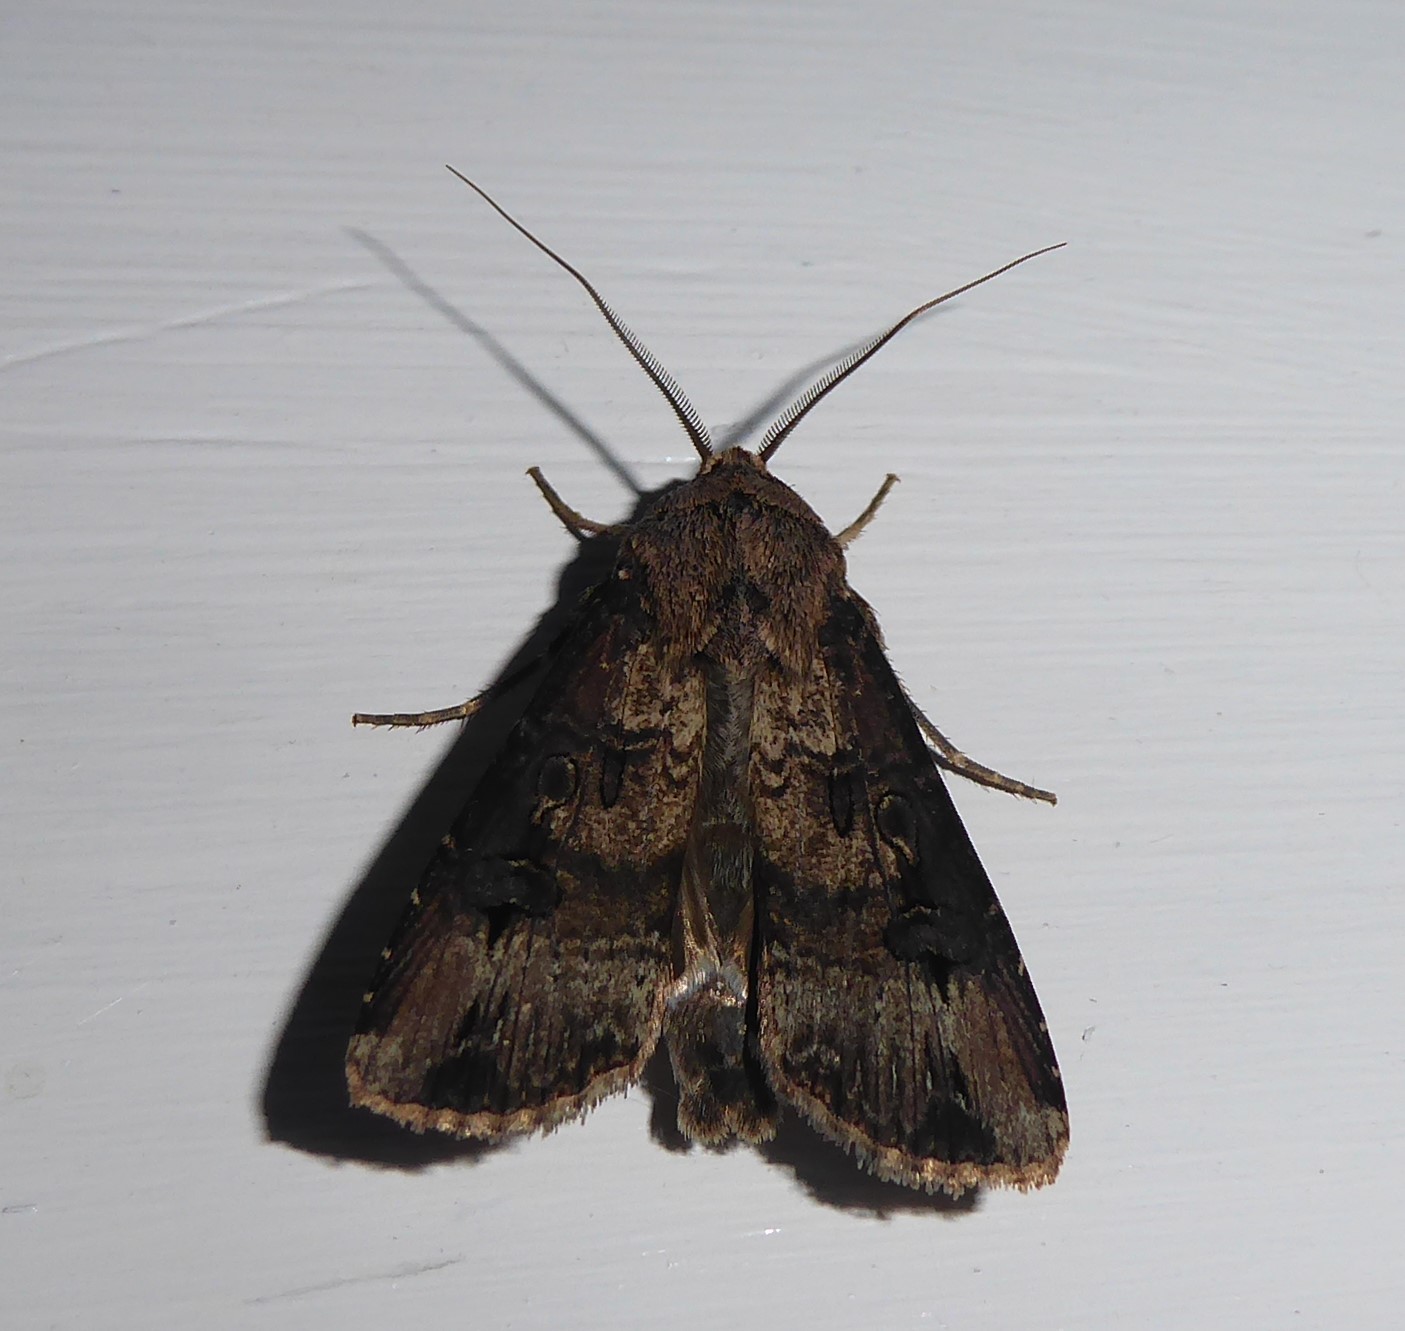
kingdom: Animalia
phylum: Arthropoda
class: Insecta
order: Lepidoptera
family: Noctuidae
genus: Agrotis
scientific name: Agrotis ipsilon
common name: Dark sword-grass
